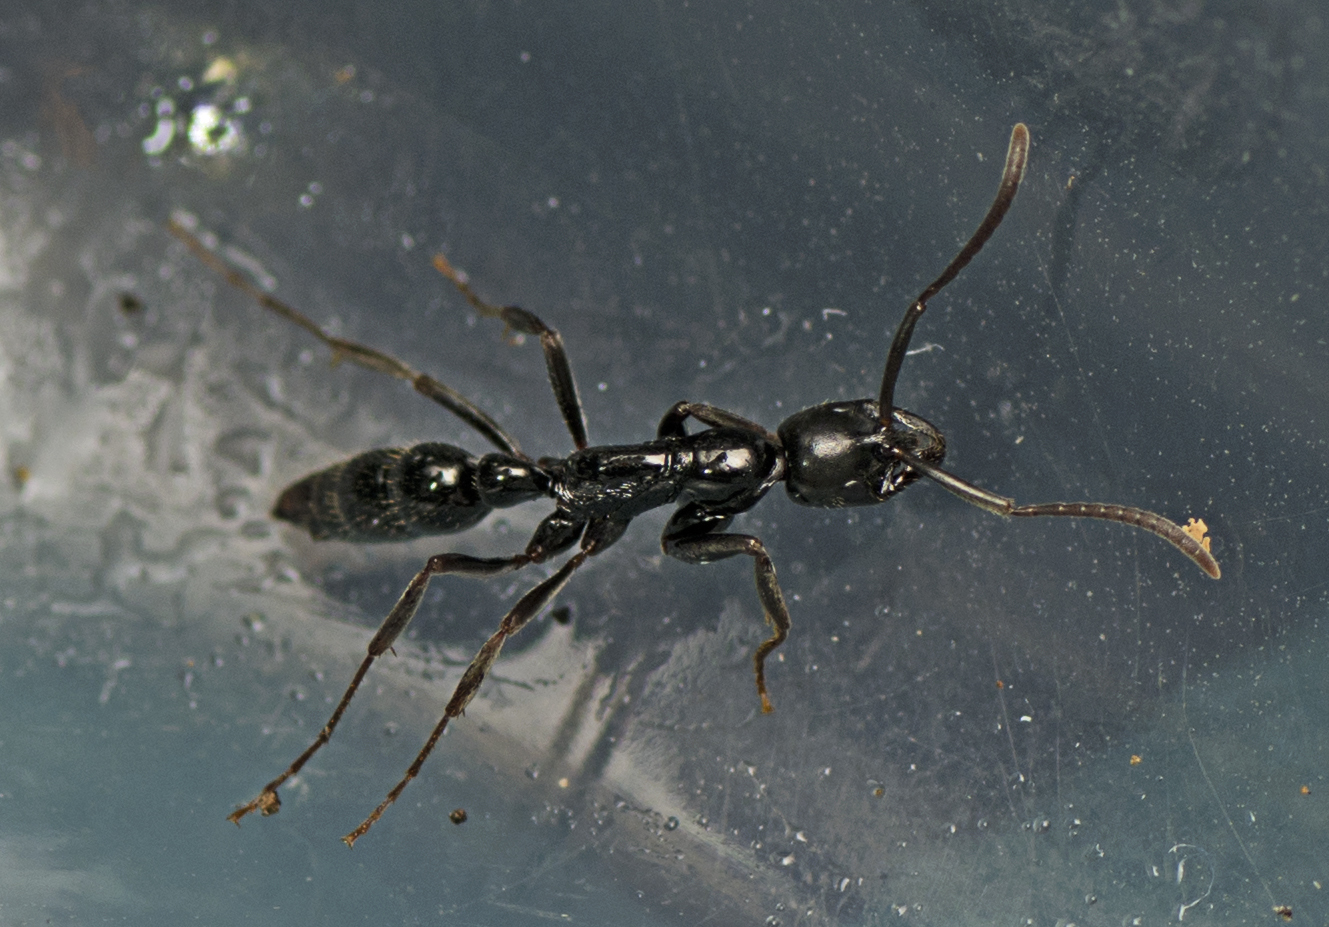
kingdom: Animalia
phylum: Arthropoda
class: Insecta
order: Hymenoptera
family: Formicidae
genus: Leptogenys
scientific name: Leptogenys mjobergi
